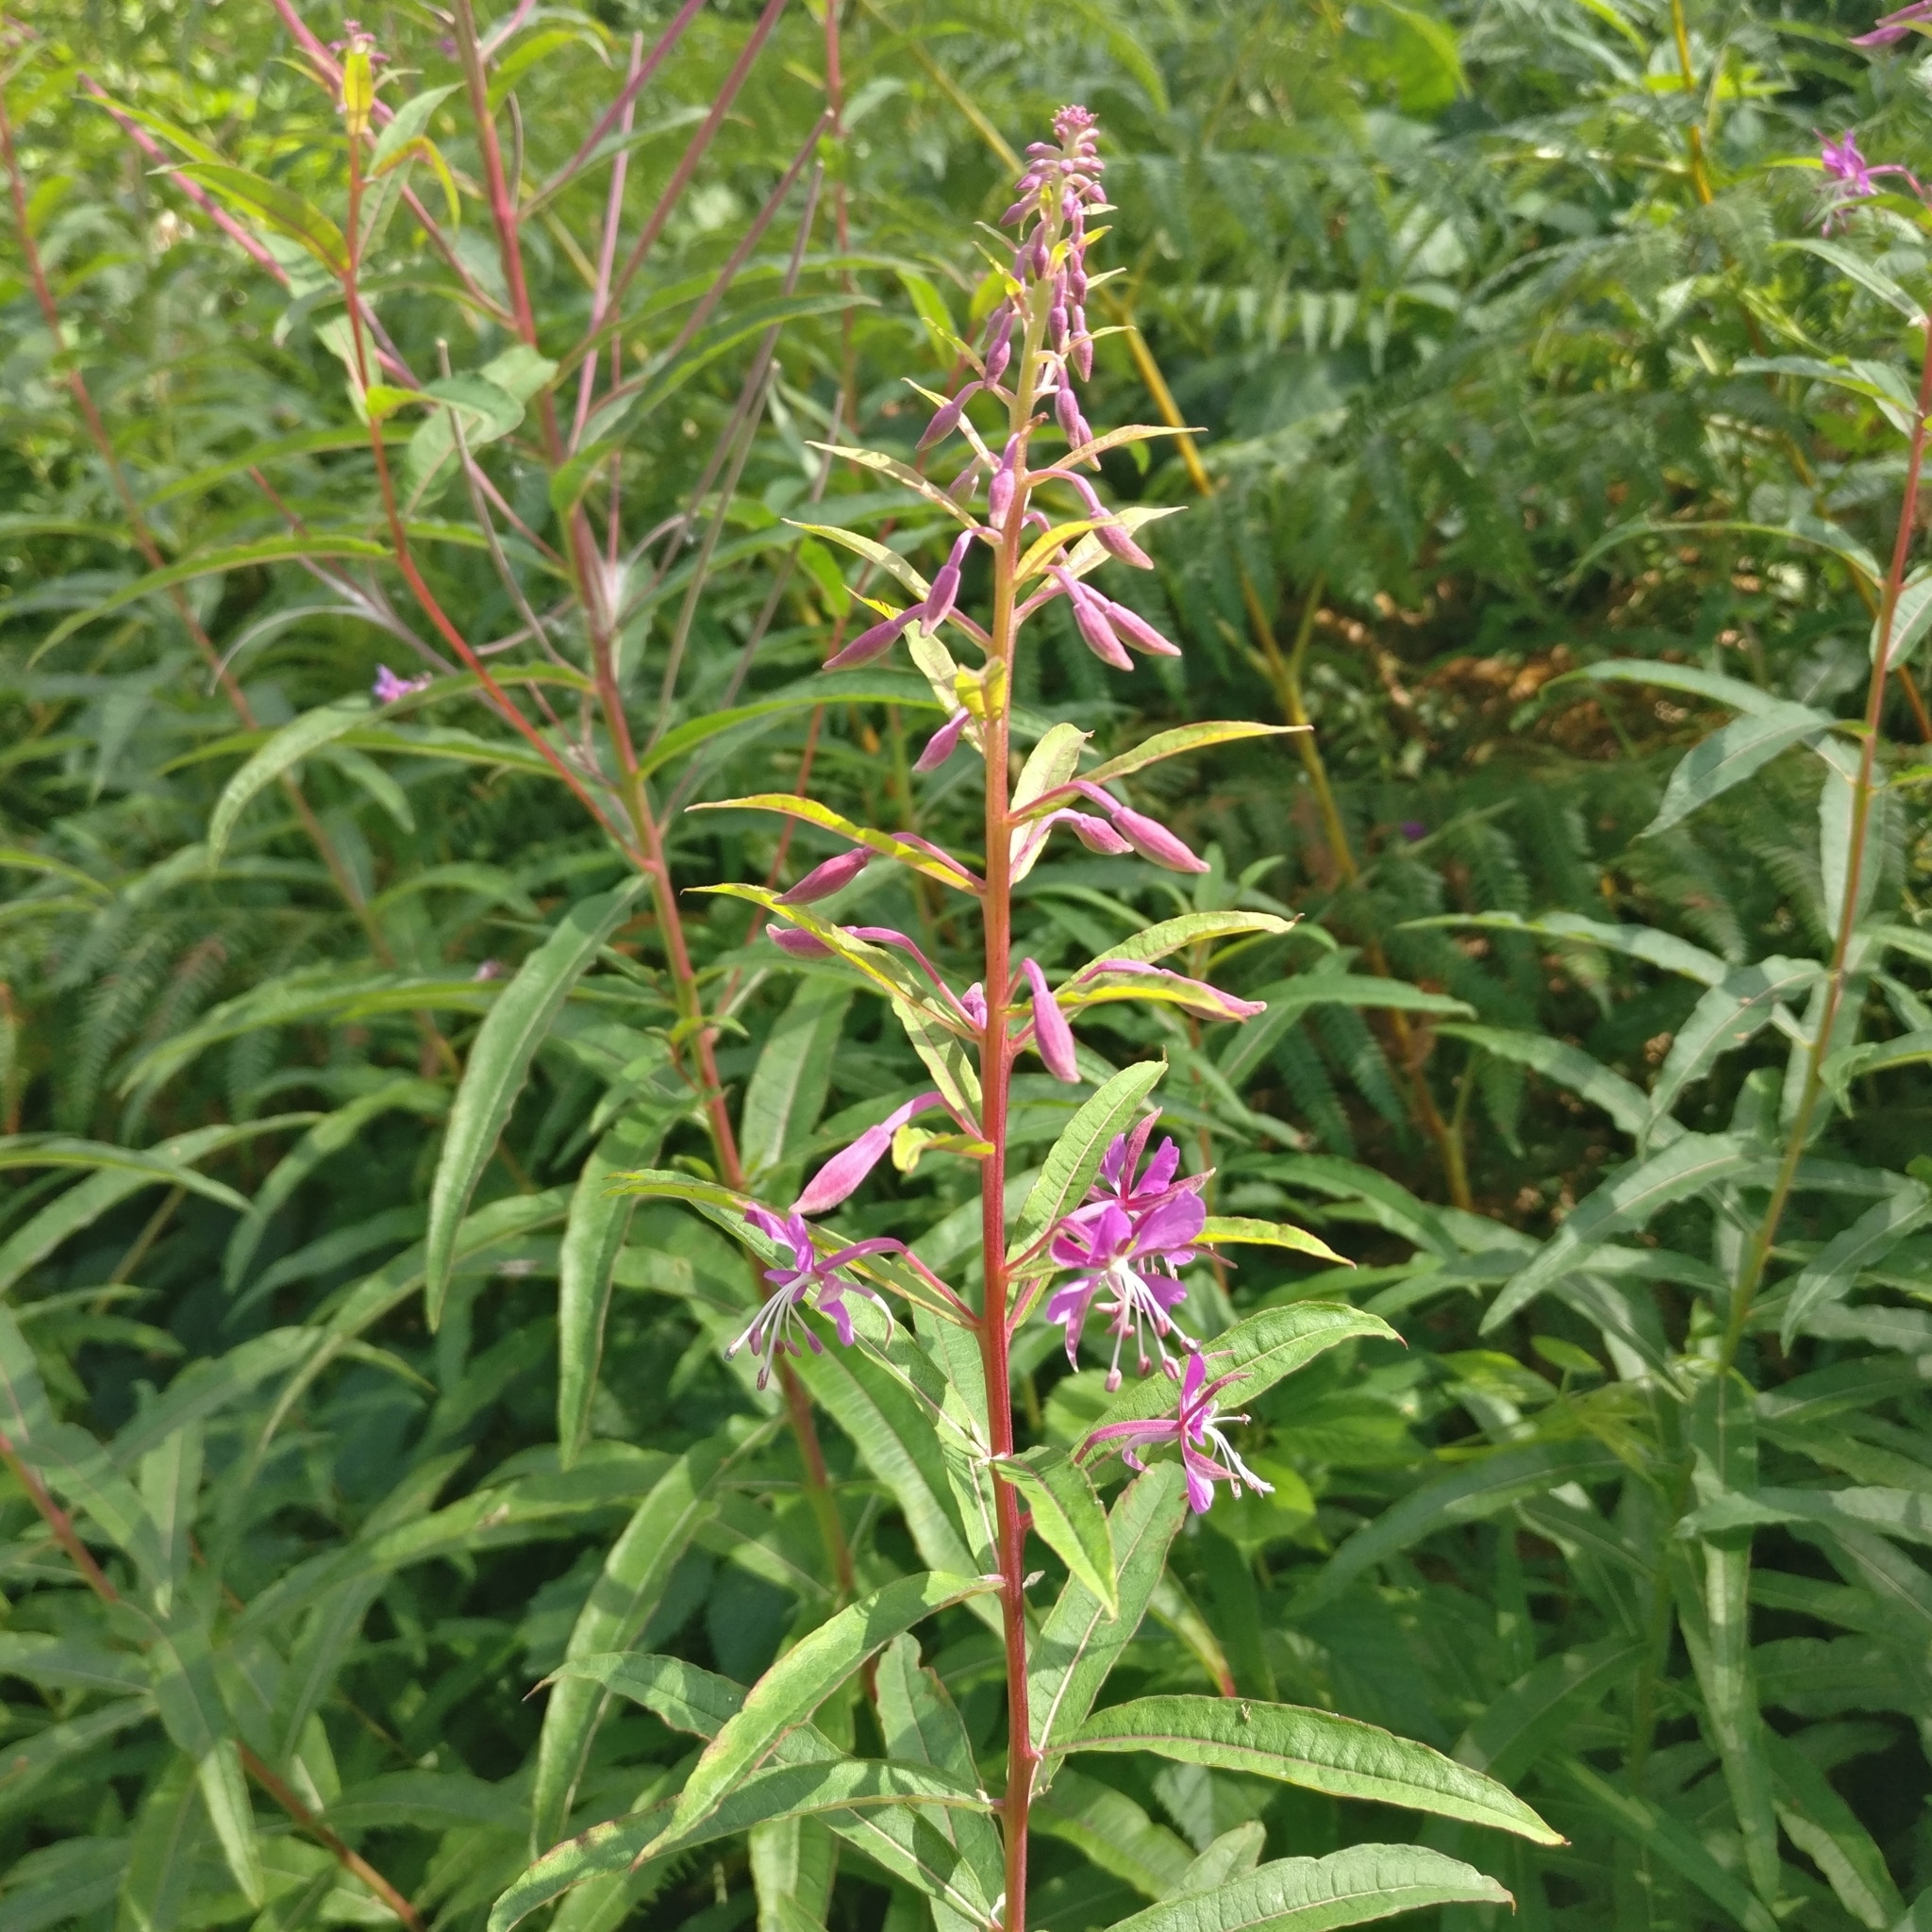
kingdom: Plantae
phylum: Tracheophyta
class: Magnoliopsida
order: Myrtales
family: Onagraceae
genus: Chamaenerion
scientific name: Chamaenerion angustifolium
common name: Fireweed
